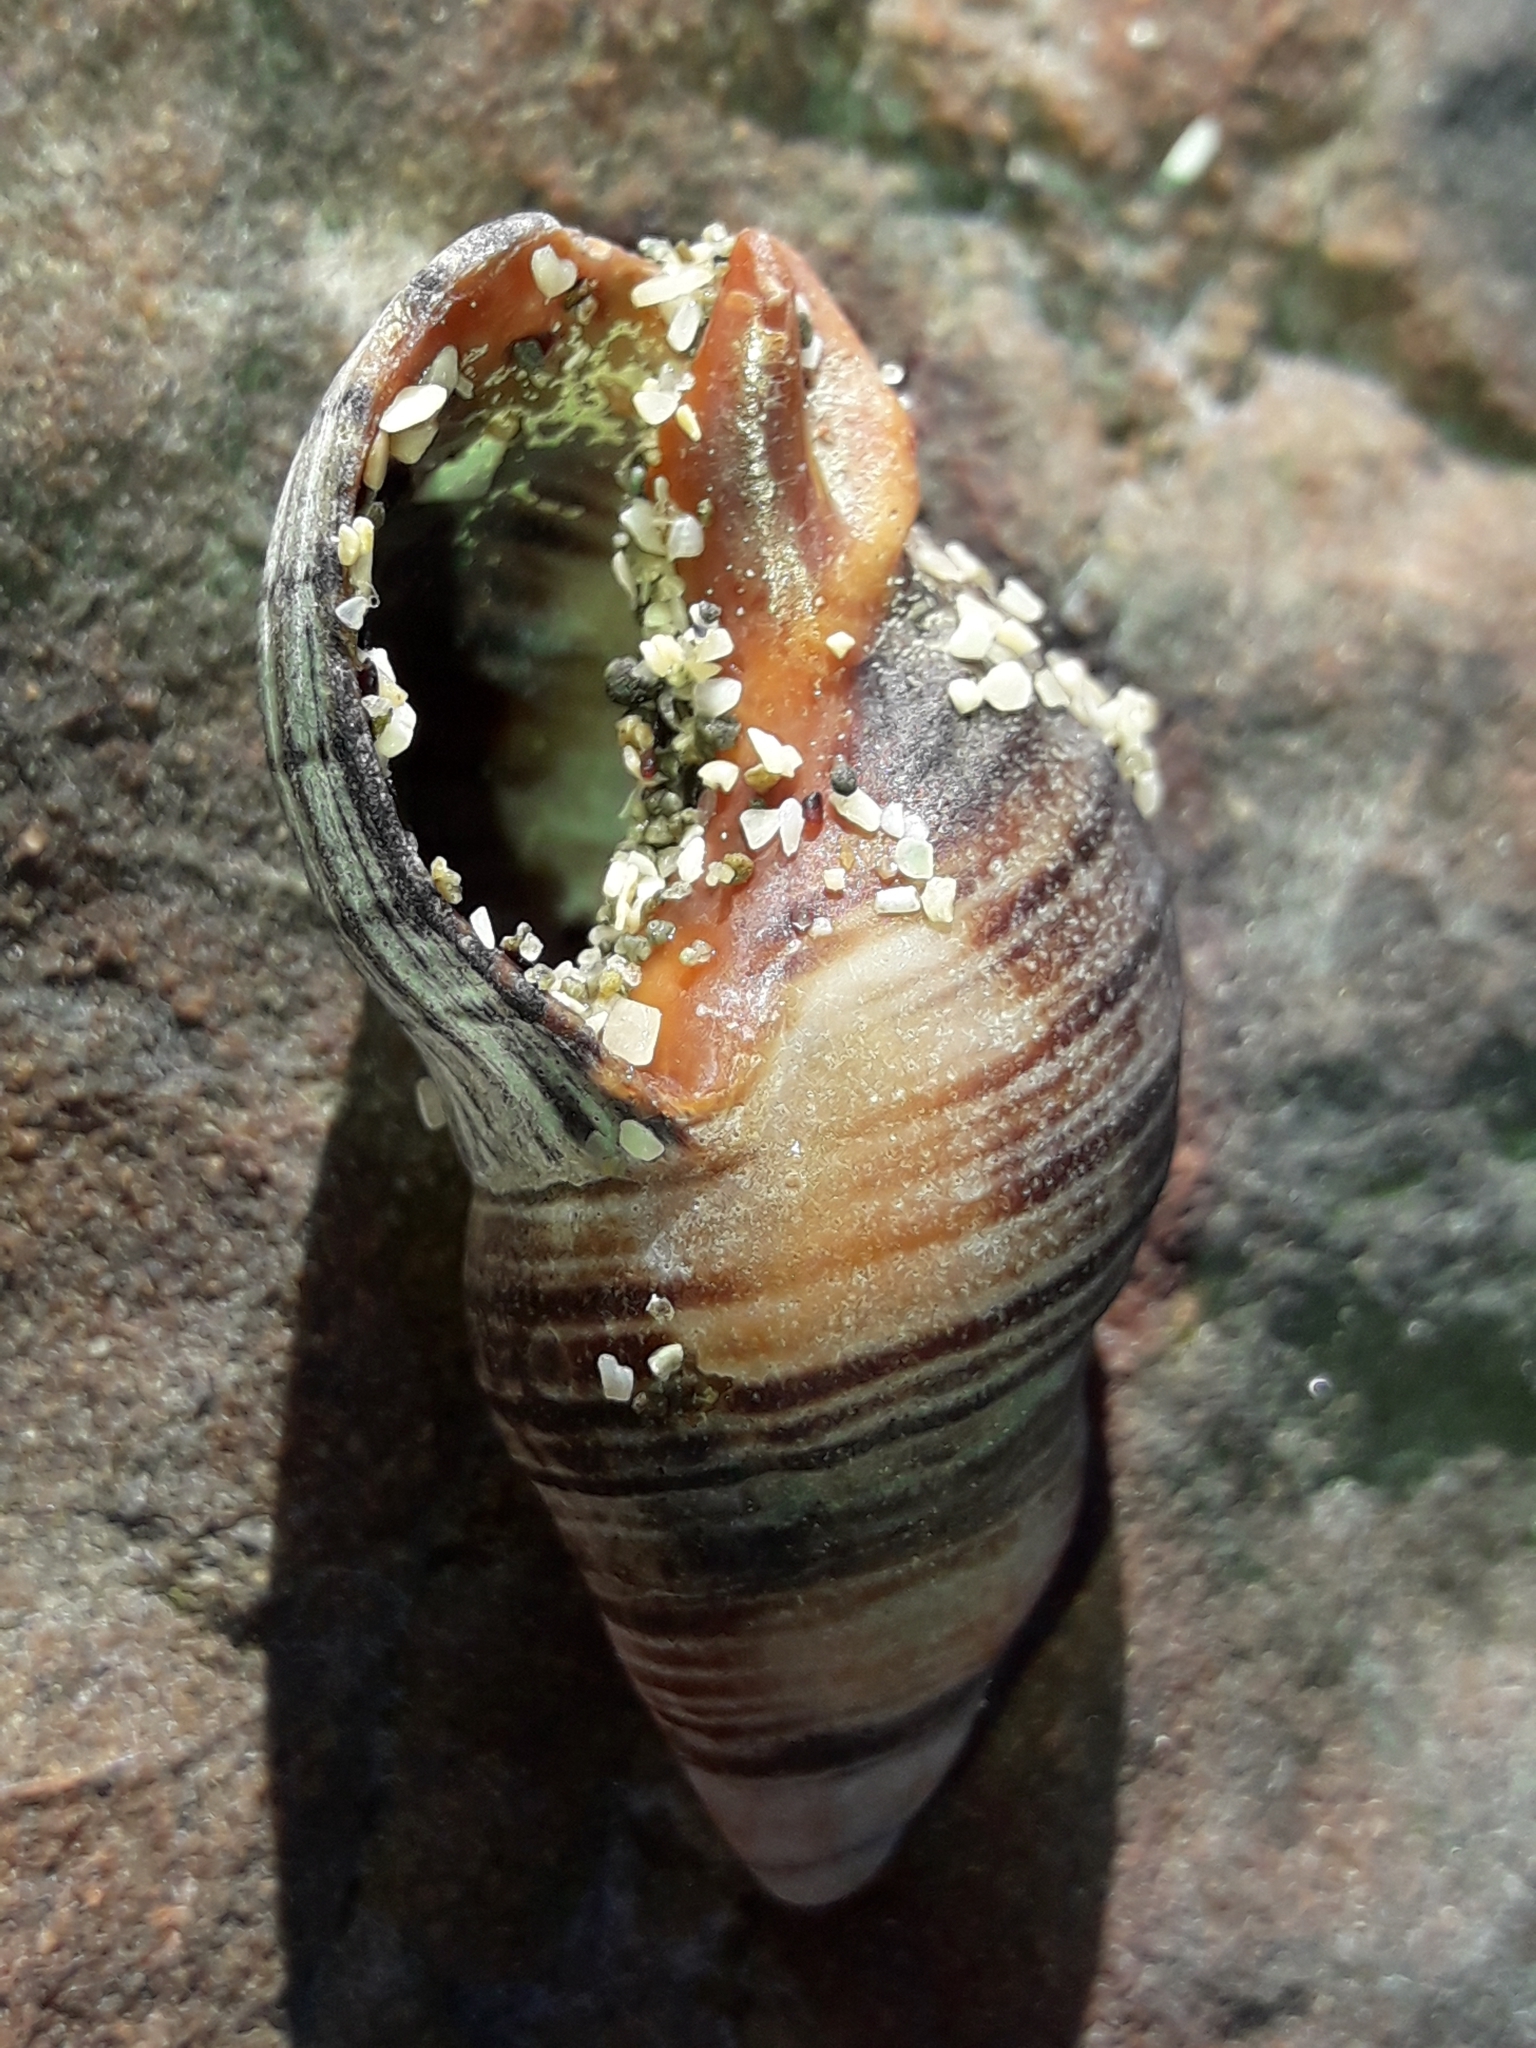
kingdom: Animalia
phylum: Mollusca
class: Gastropoda
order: Neogastropoda
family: Cominellidae
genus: Cominella
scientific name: Cominella virgata
